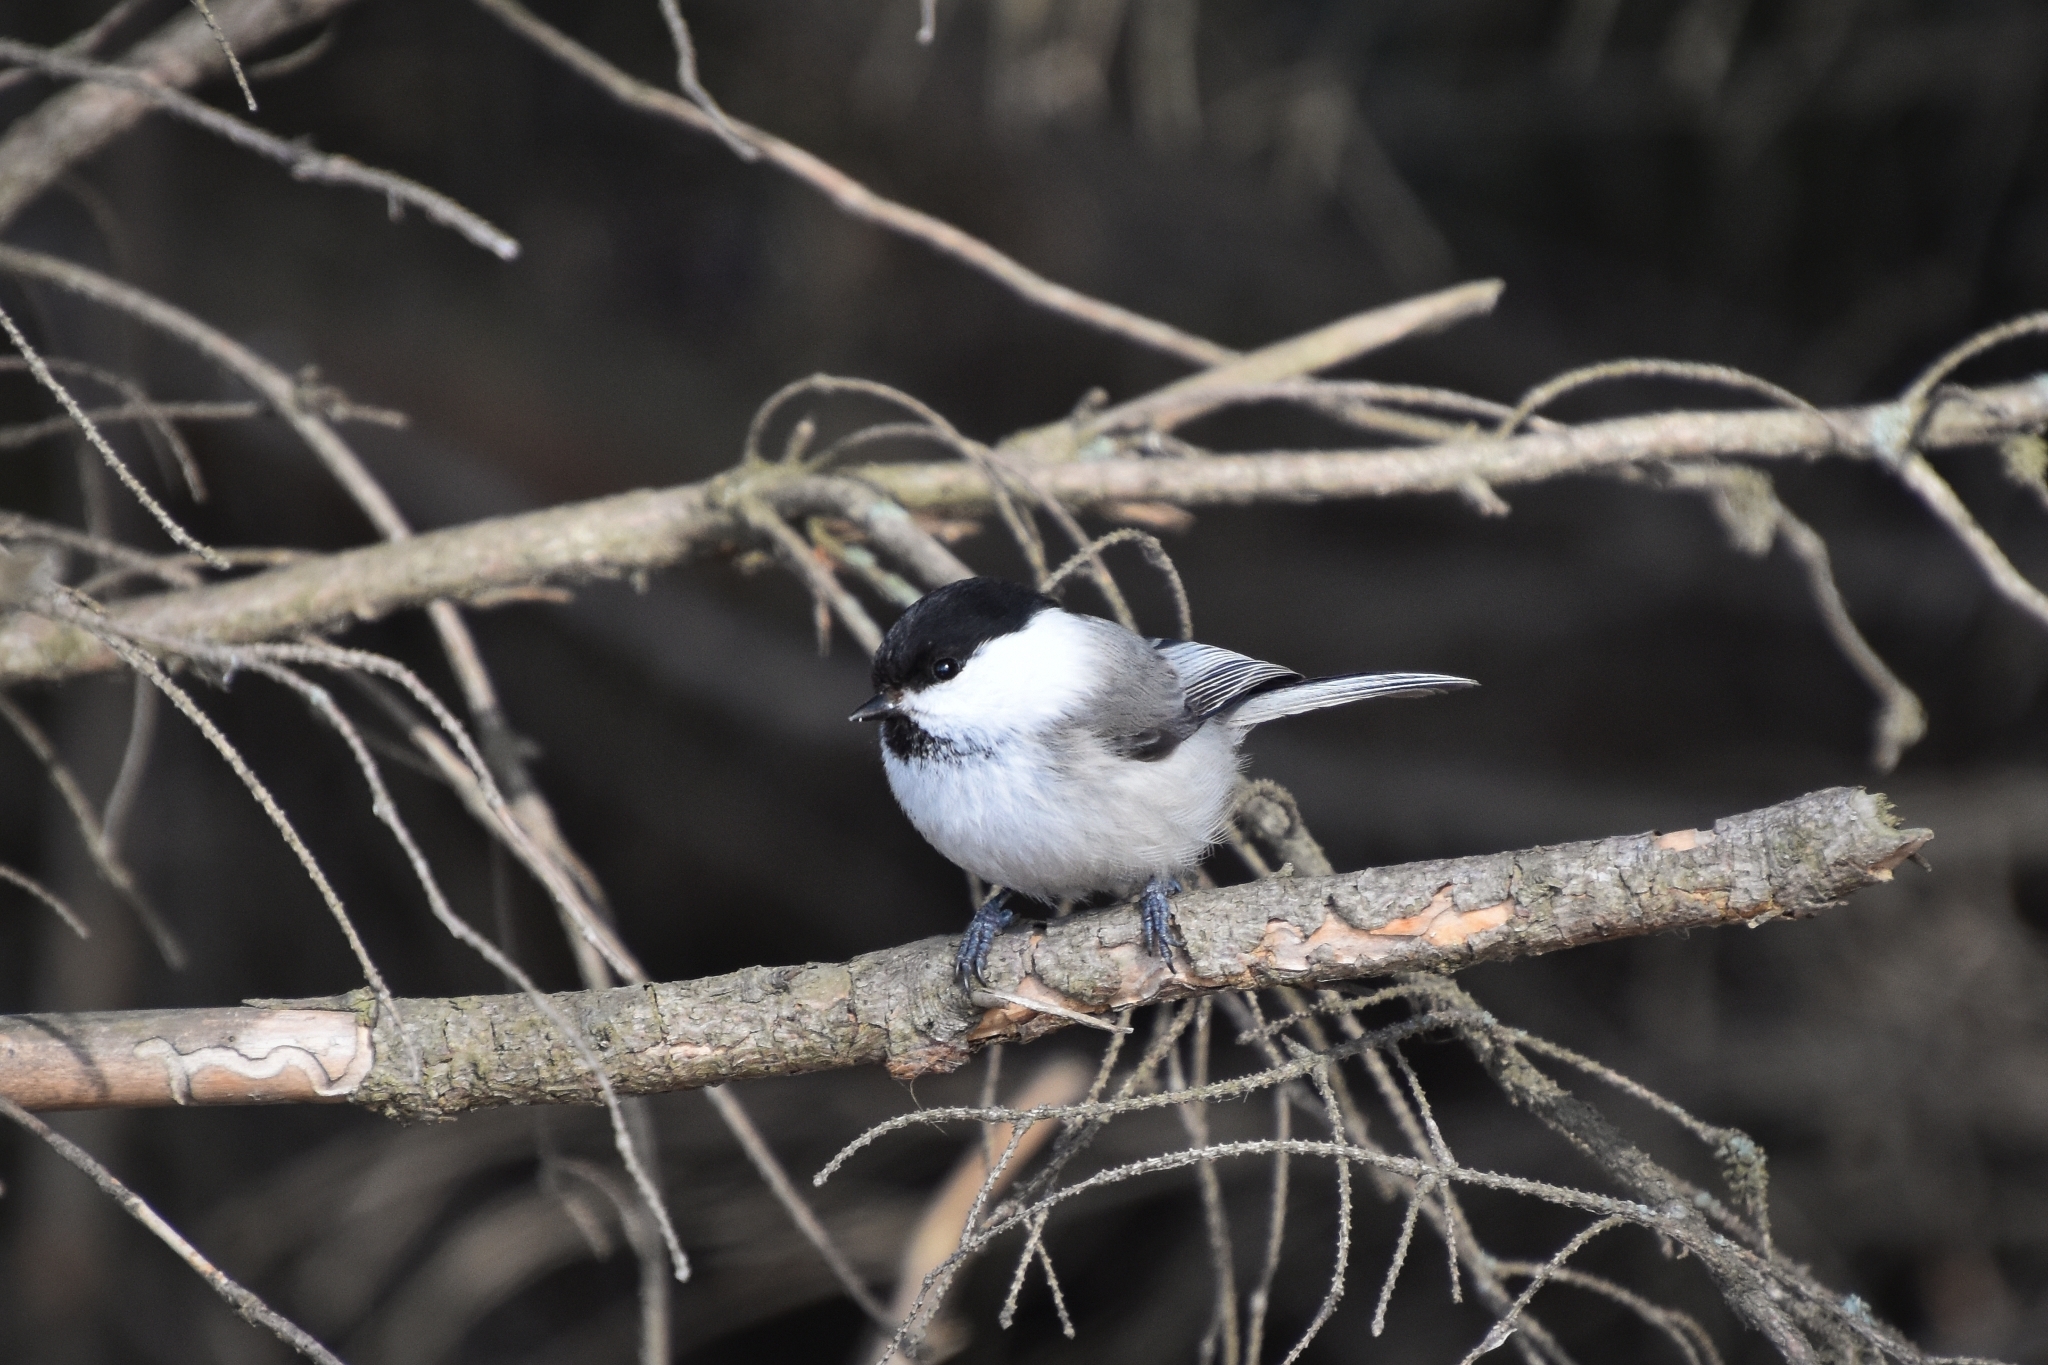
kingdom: Animalia
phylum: Chordata
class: Aves
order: Passeriformes
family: Paridae
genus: Poecile
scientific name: Poecile montanus
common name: Willow tit
